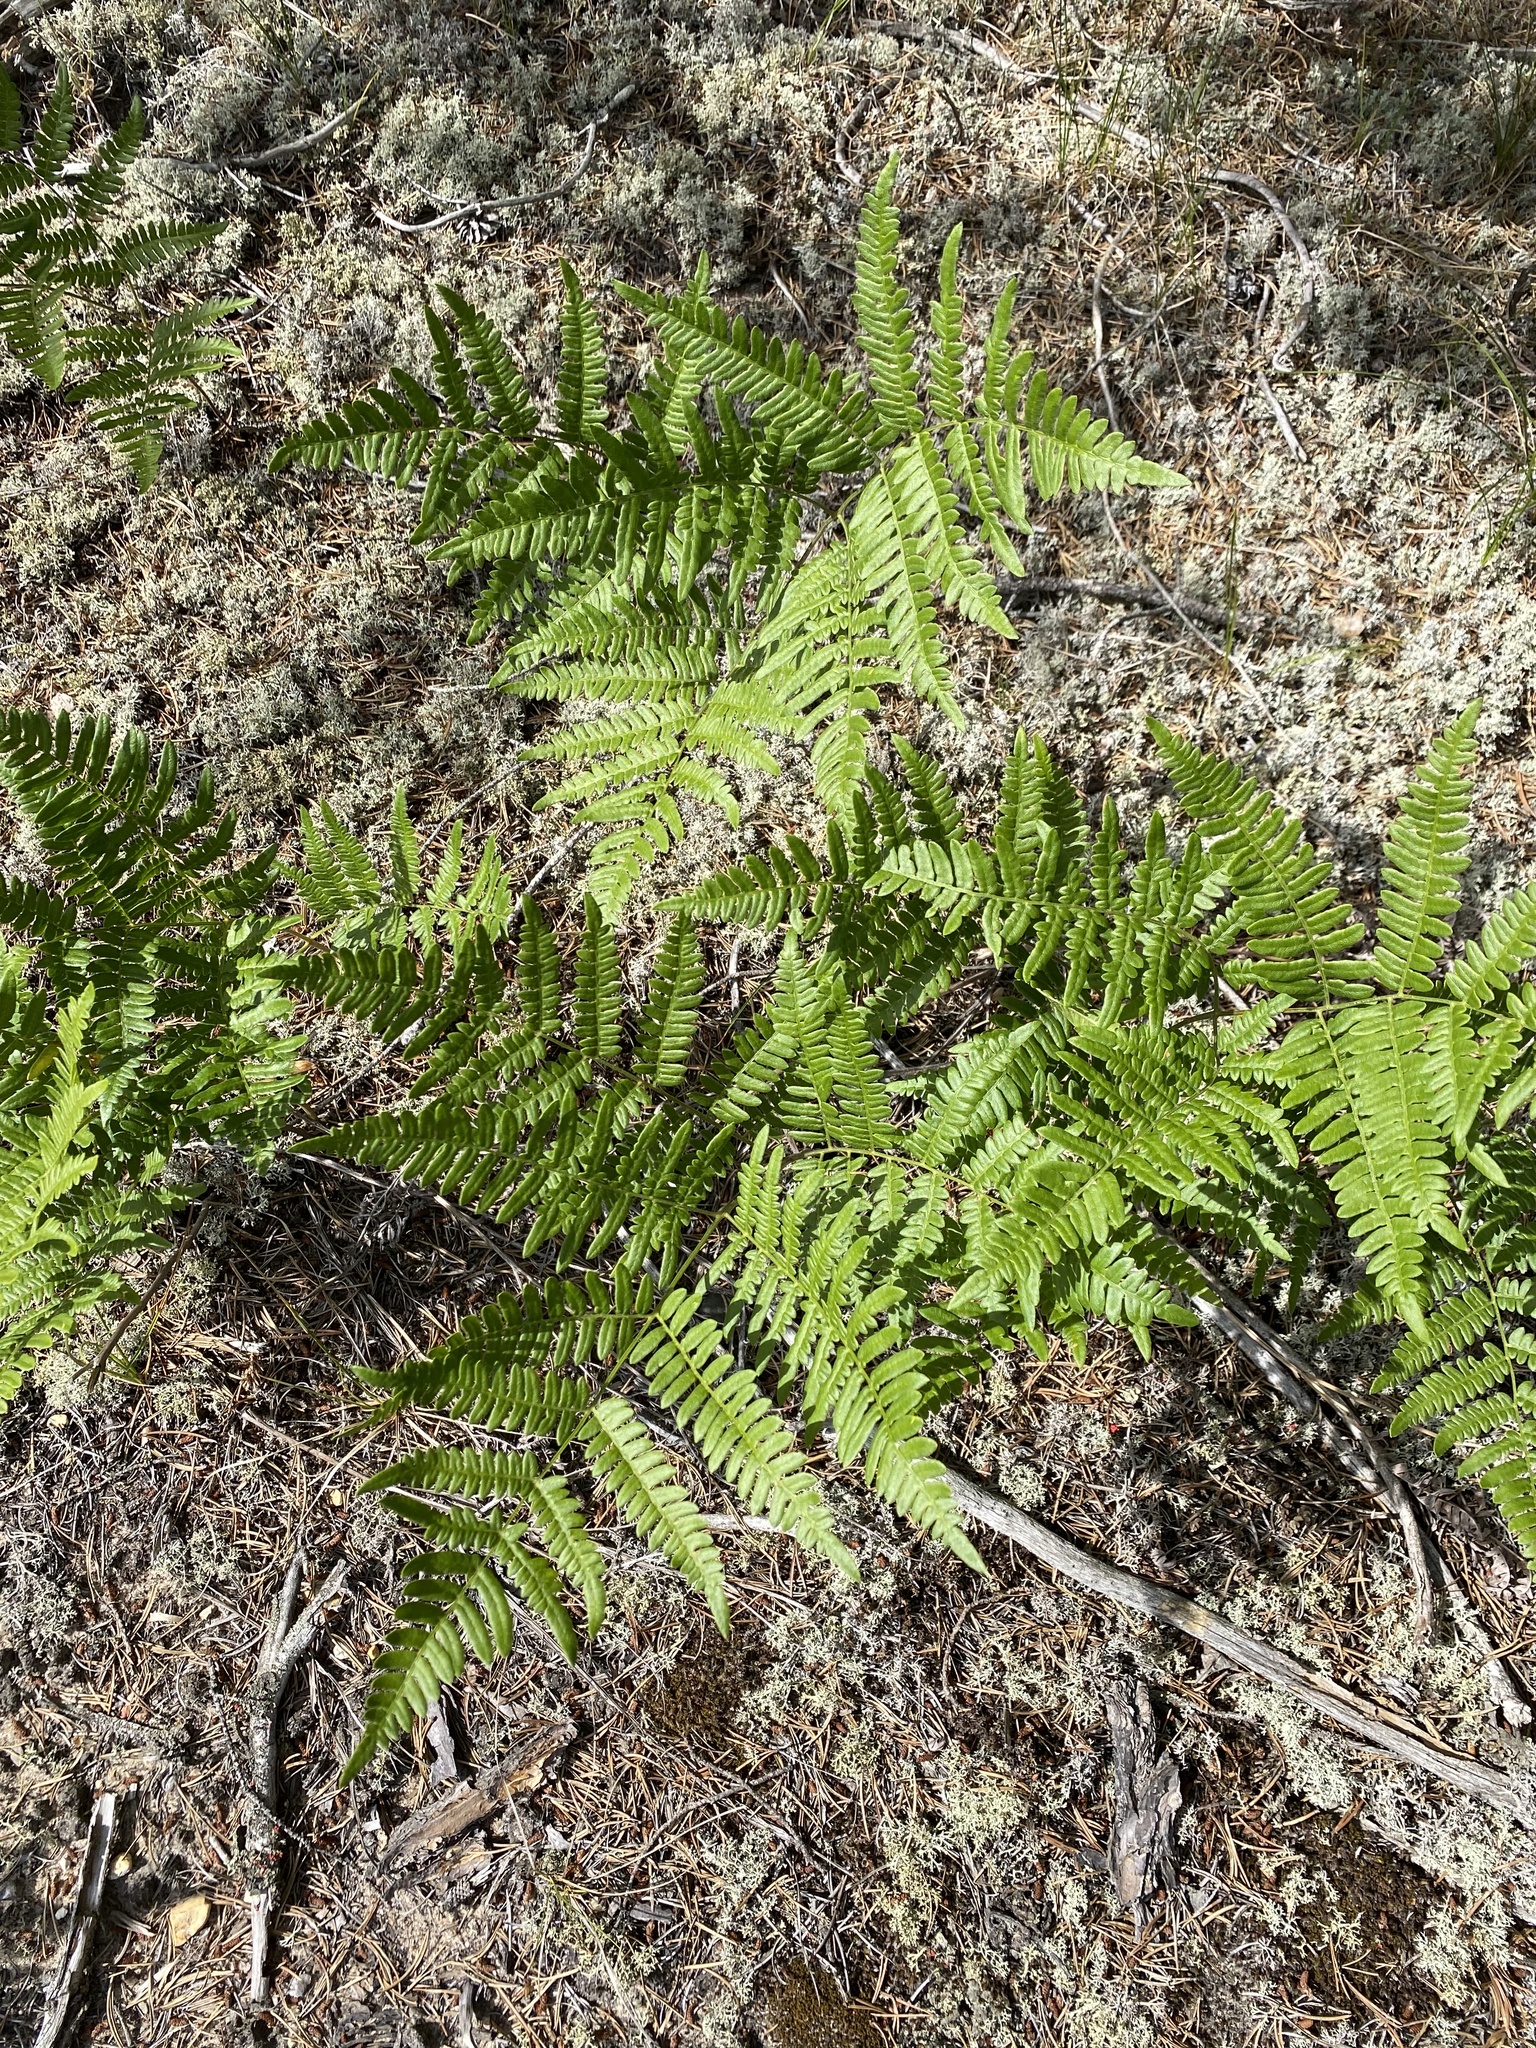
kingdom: Plantae
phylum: Tracheophyta
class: Polypodiopsida
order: Polypodiales
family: Dennstaedtiaceae
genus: Pteridium
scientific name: Pteridium aquilinum
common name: Bracken
